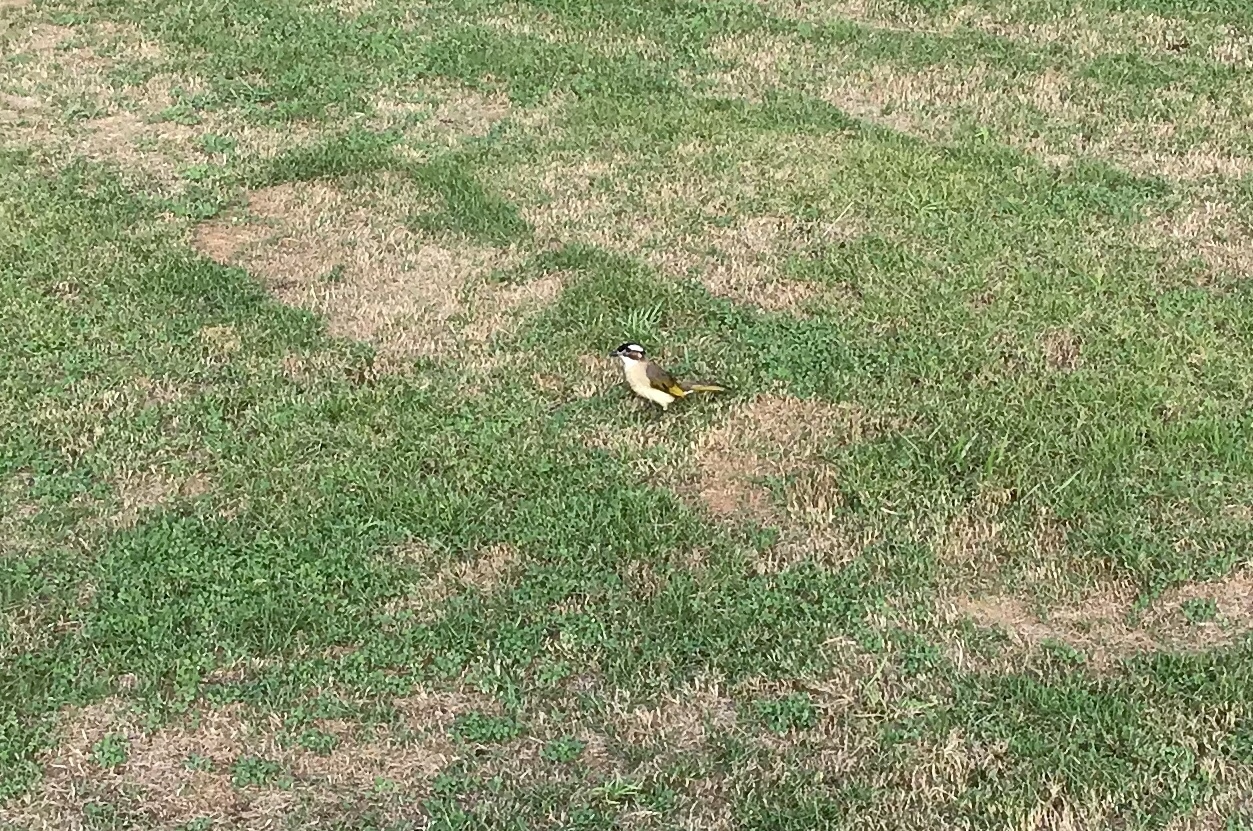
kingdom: Animalia
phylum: Chordata
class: Aves
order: Passeriformes
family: Pycnonotidae
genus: Pycnonotus
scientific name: Pycnonotus sinensis
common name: Light-vented bulbul
